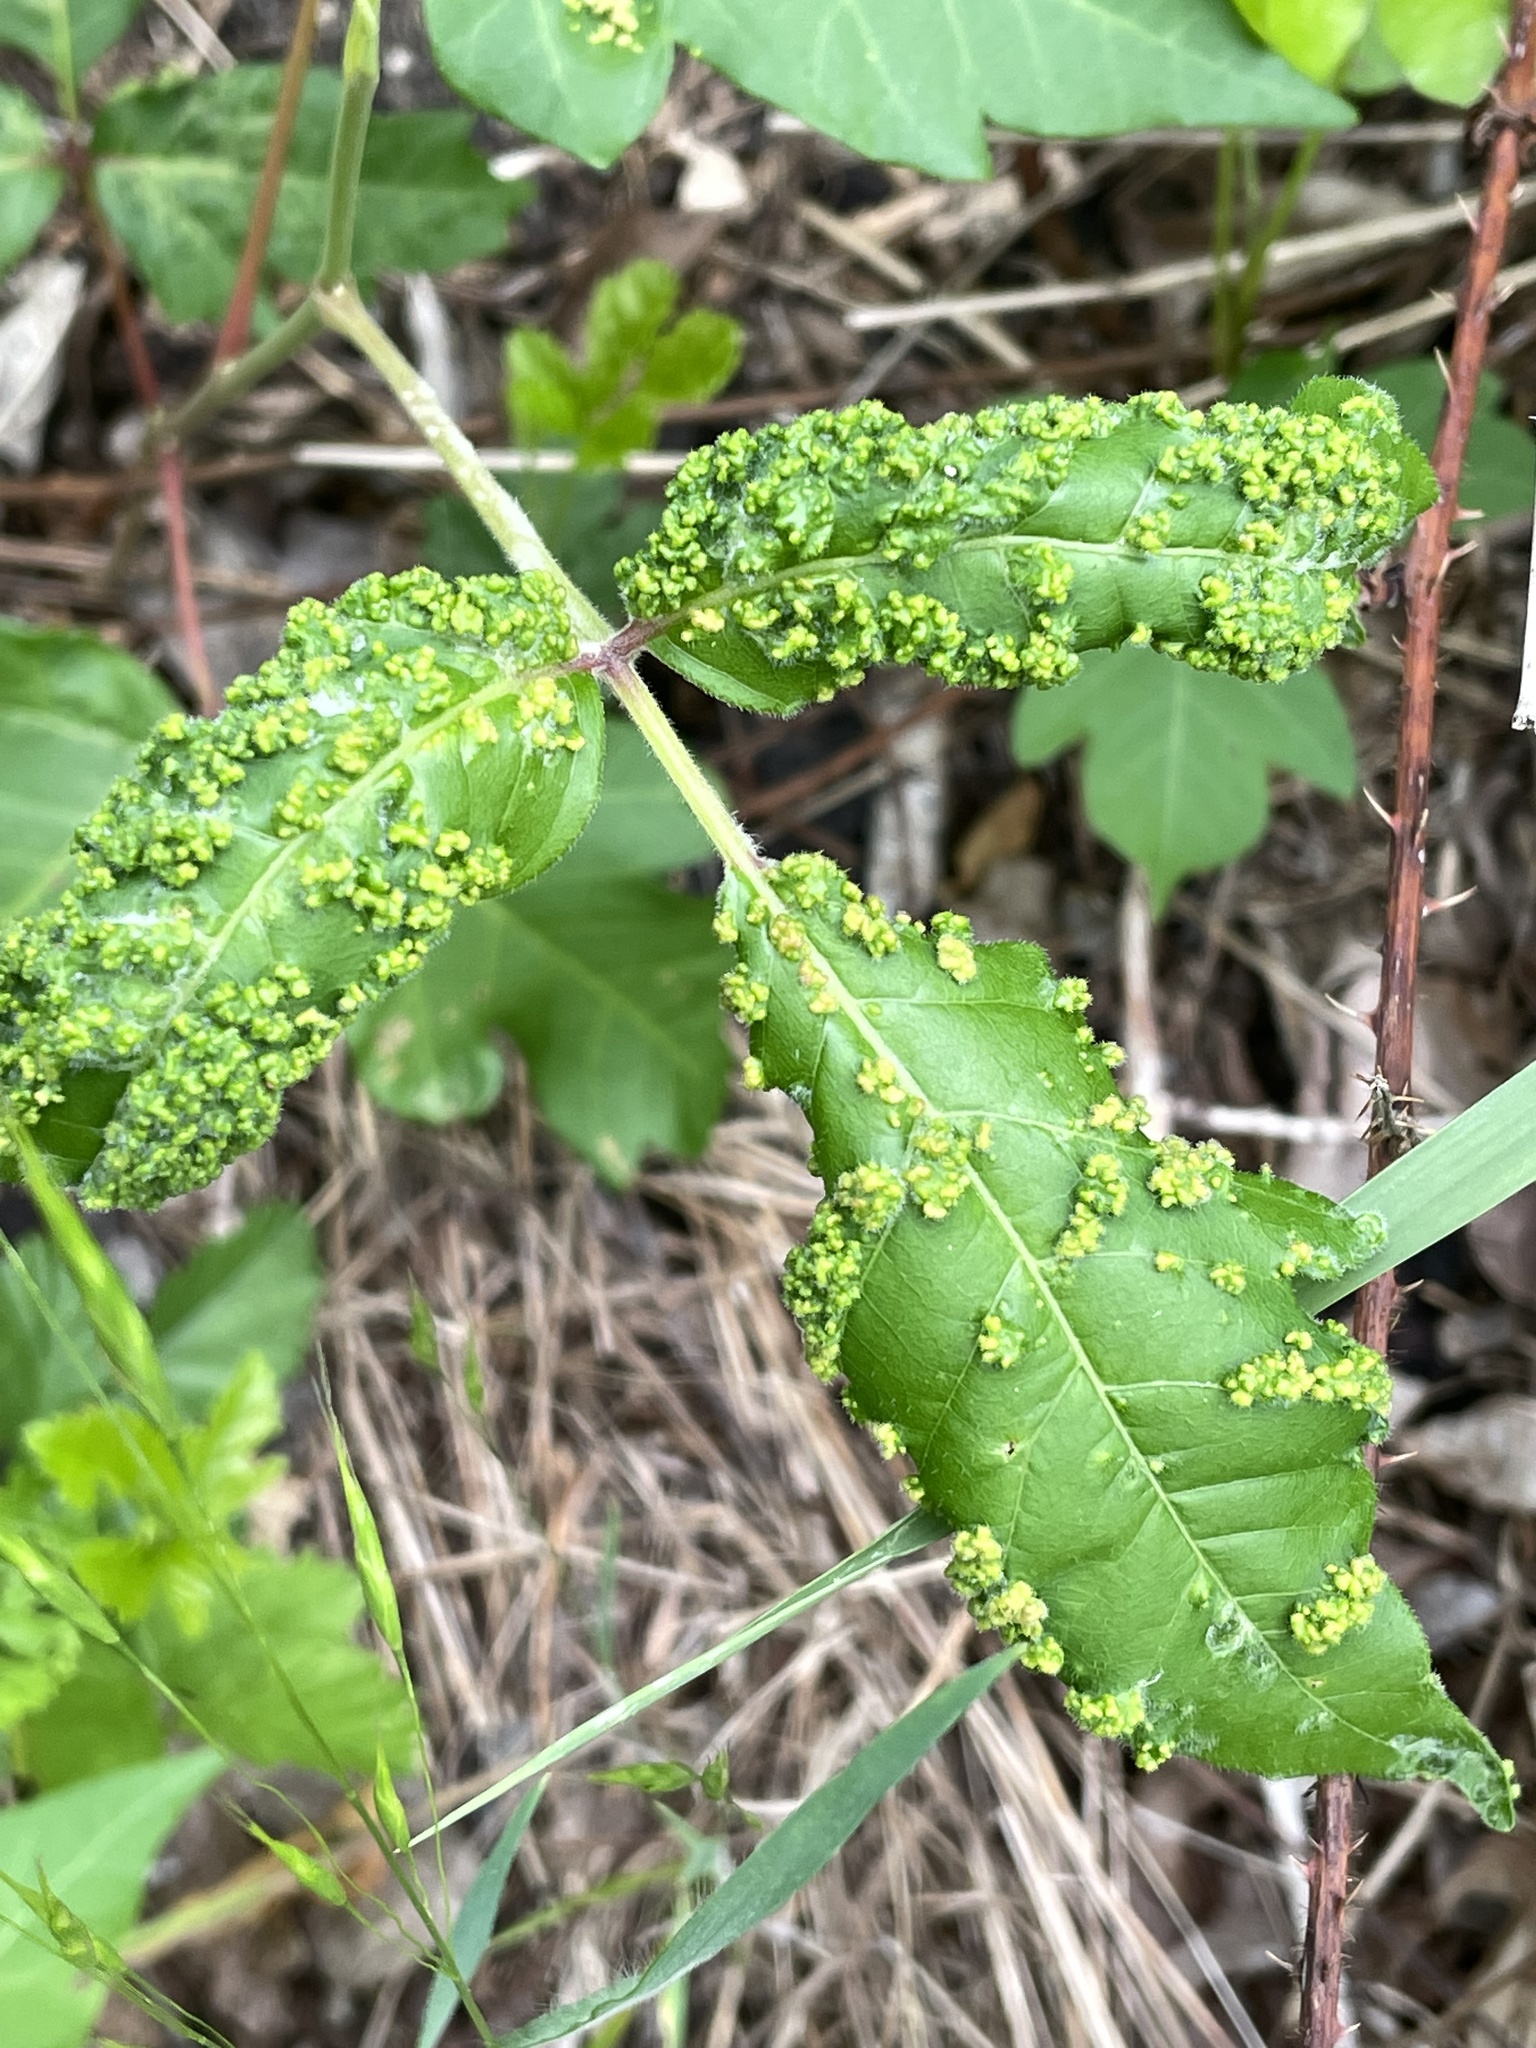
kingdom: Animalia
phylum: Arthropoda
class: Arachnida
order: Trombidiformes
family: Eriophyidae
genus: Aculops
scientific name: Aculops
